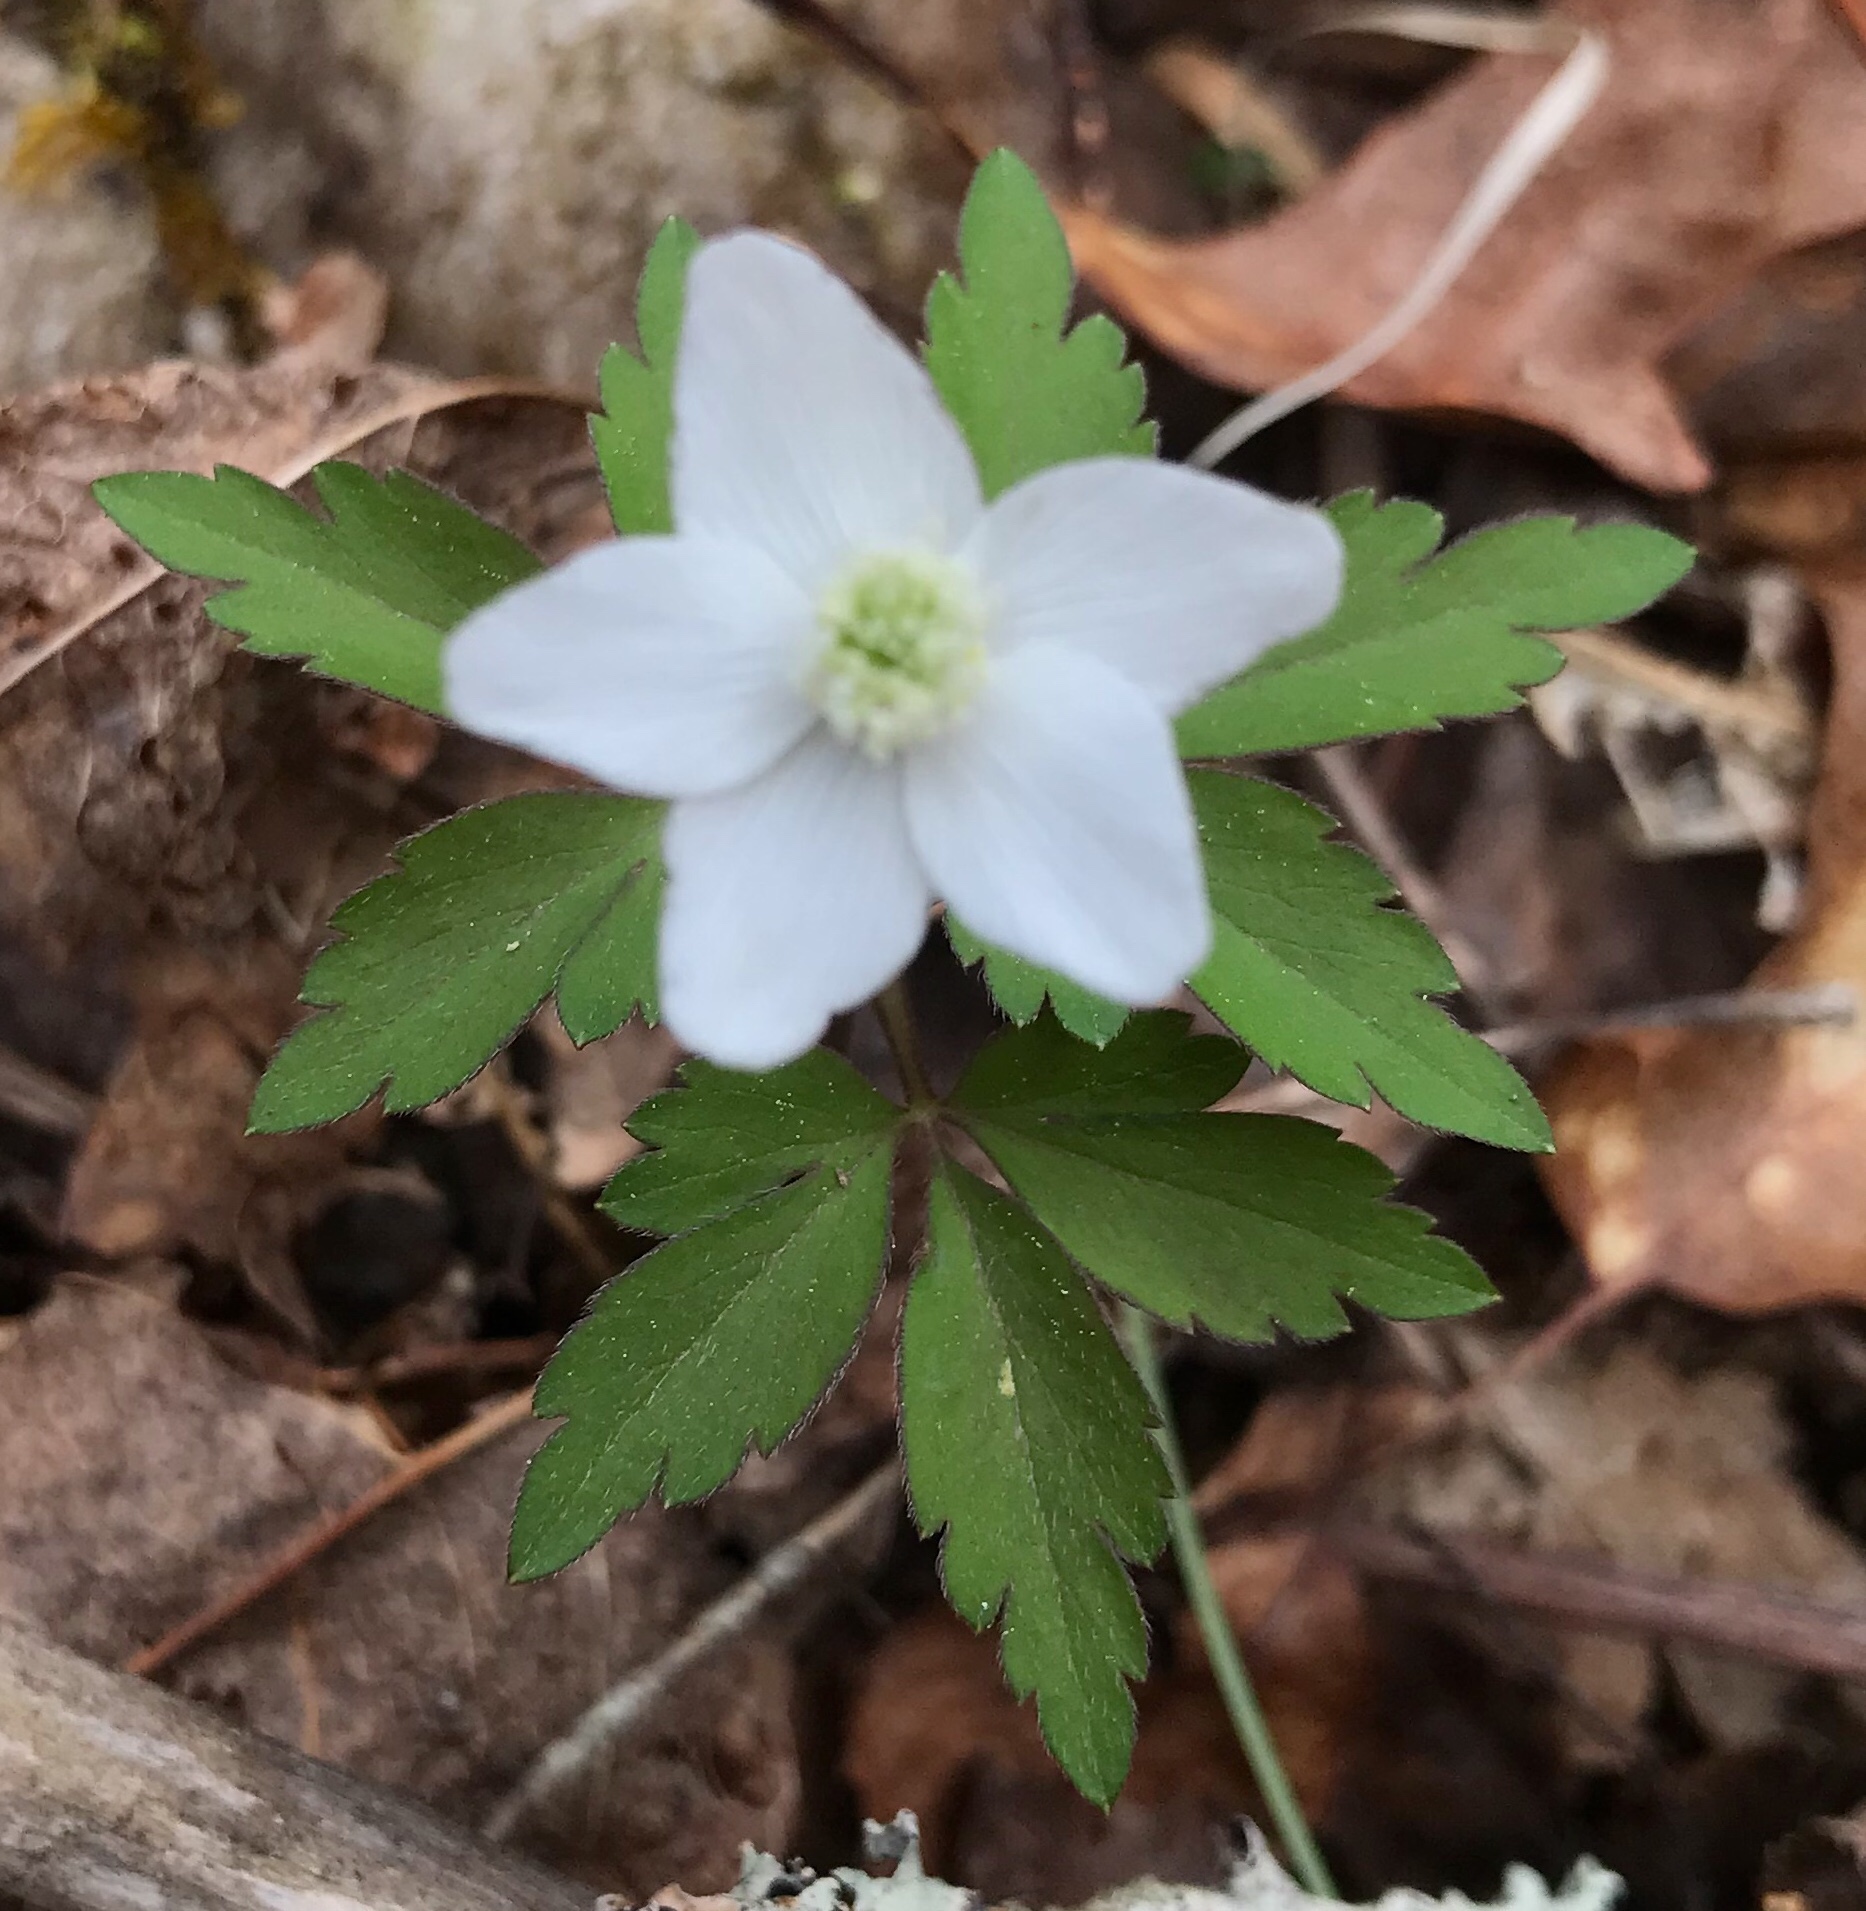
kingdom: Plantae
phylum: Tracheophyta
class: Magnoliopsida
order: Ranunculales
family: Ranunculaceae
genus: Anemone
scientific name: Anemone quinquefolia
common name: Wood anemone
